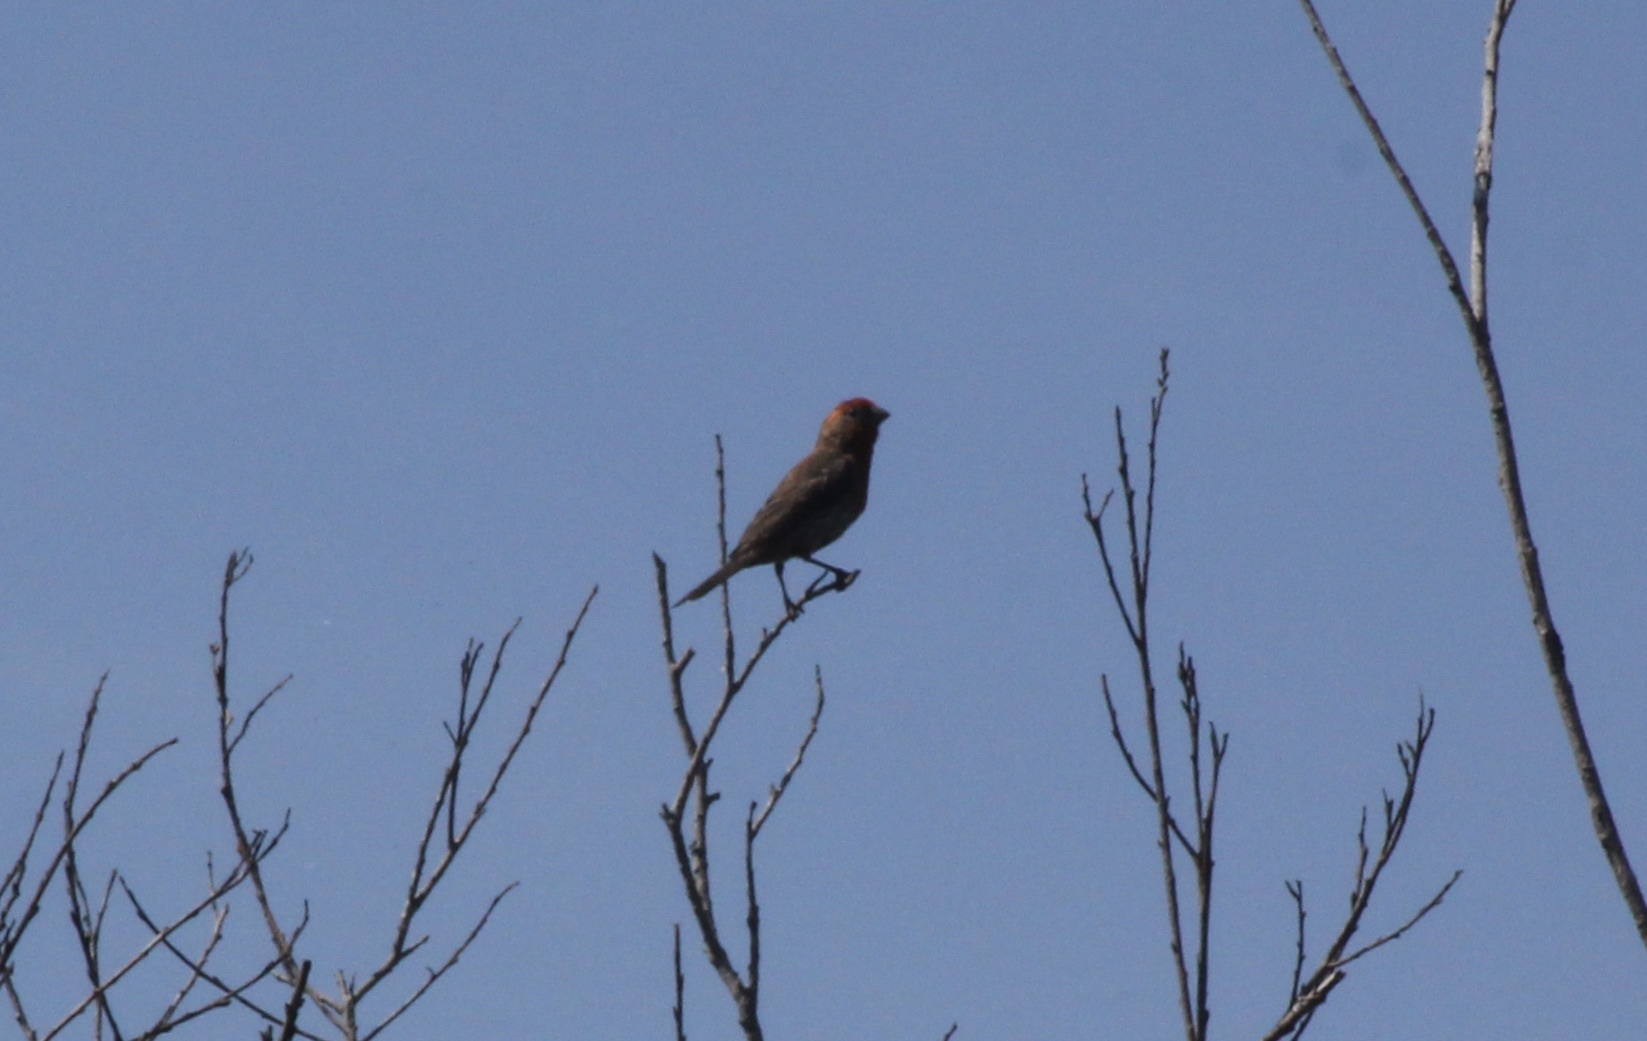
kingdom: Animalia
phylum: Chordata
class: Aves
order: Passeriformes
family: Fringillidae
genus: Haemorhous
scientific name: Haemorhous mexicanus
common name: House finch
